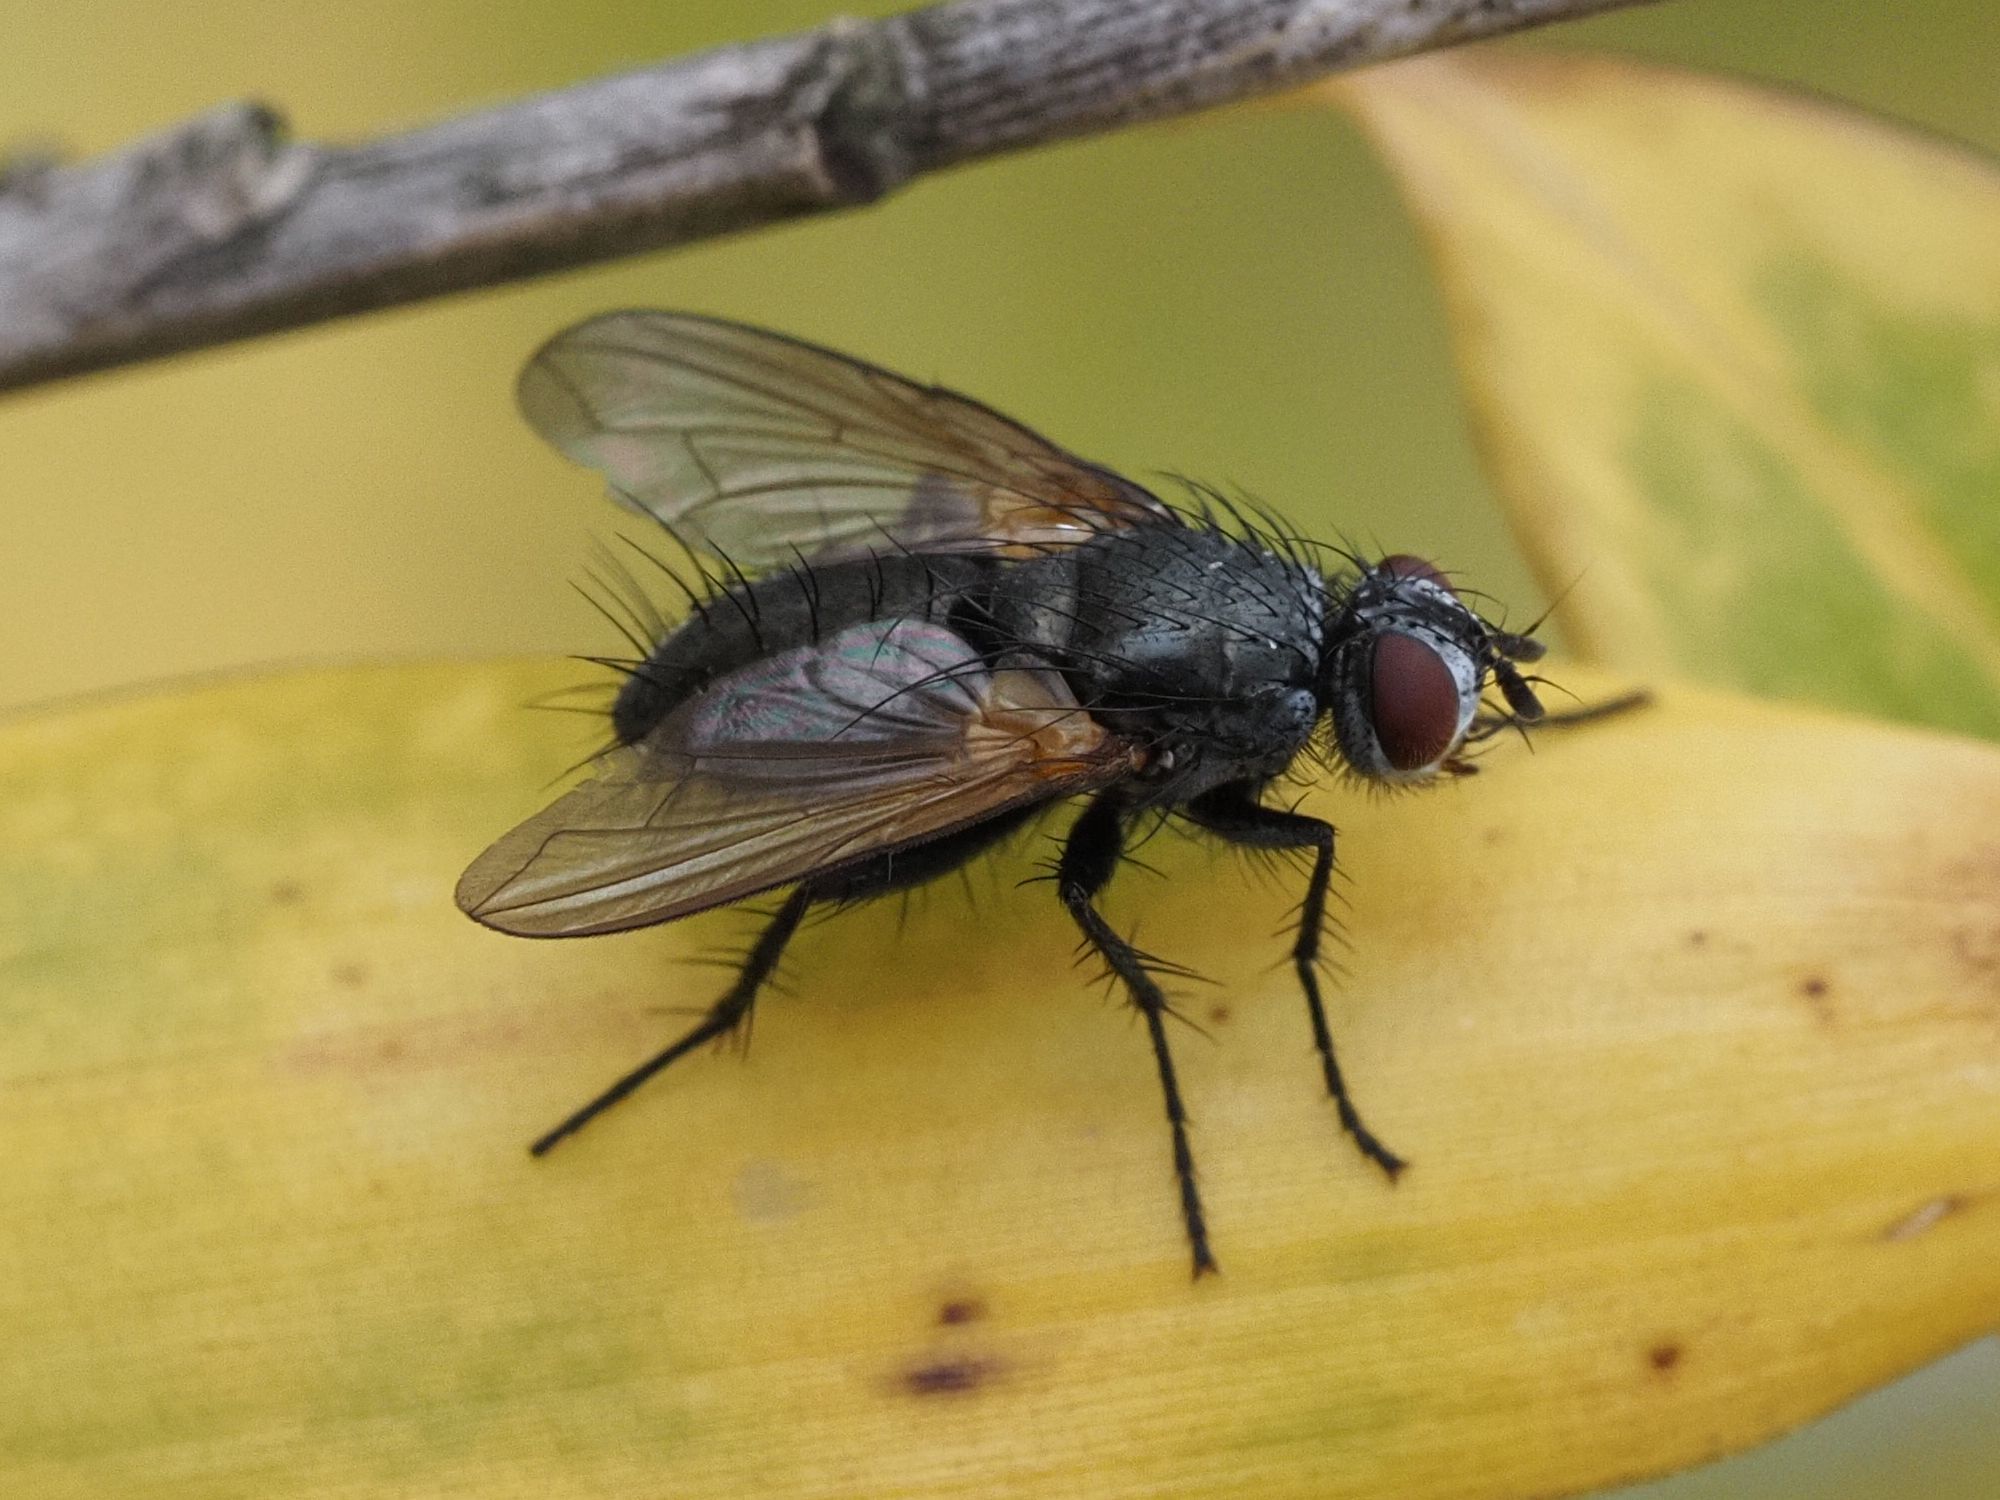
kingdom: Animalia
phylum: Arthropoda
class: Insecta
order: Diptera
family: Tachinidae
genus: Macquartia
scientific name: Macquartia tenebricosa
